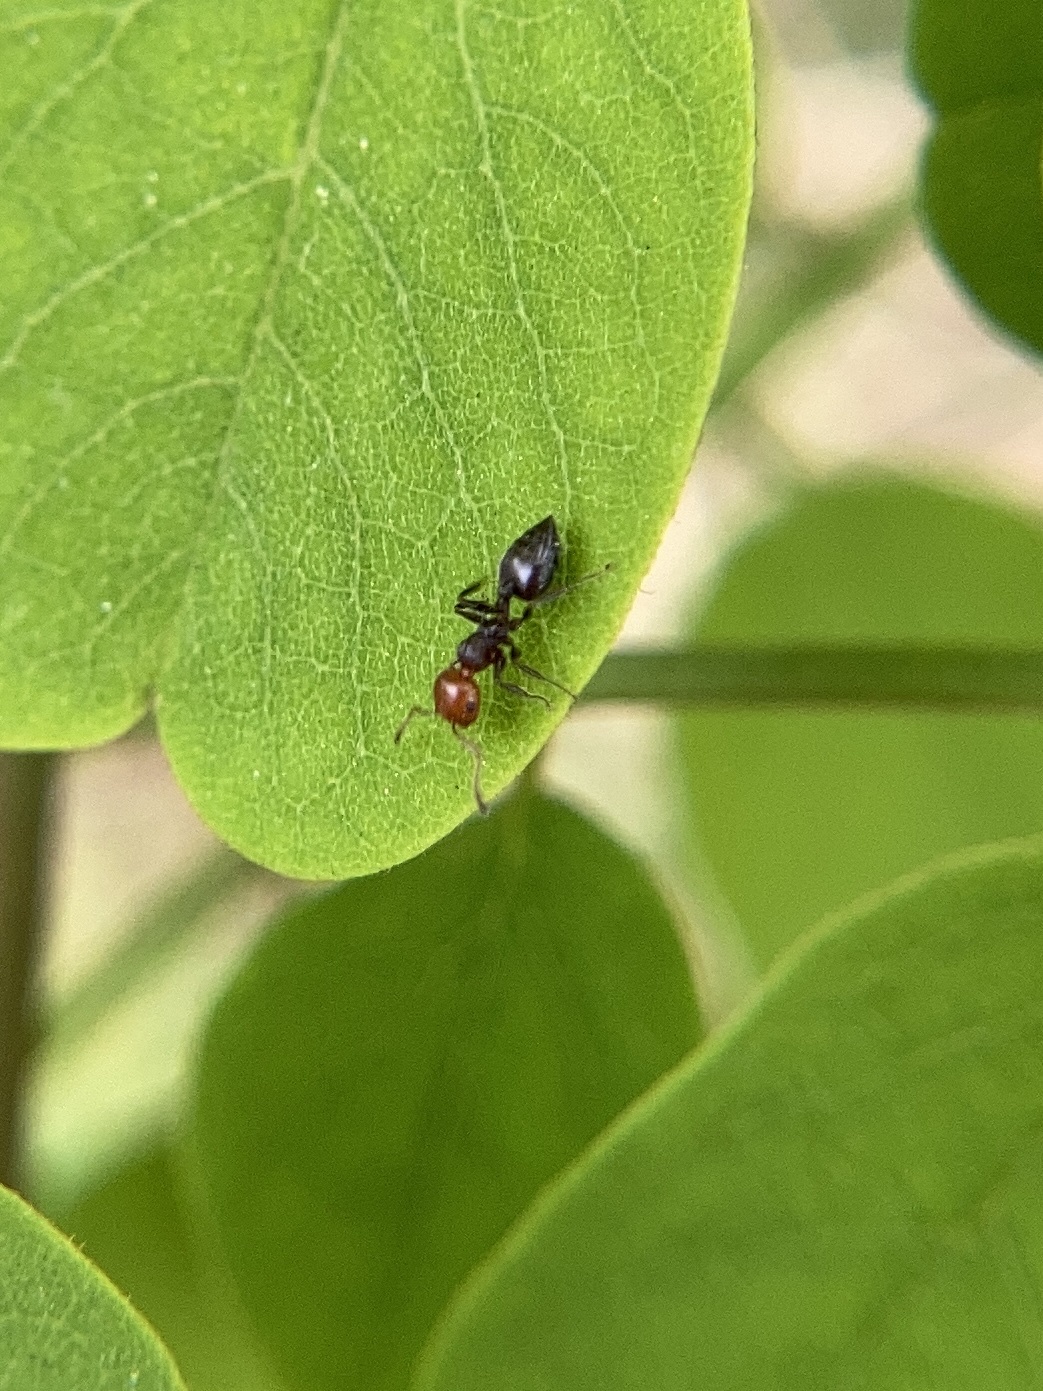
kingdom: Animalia
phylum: Arthropoda
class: Insecta
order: Hymenoptera
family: Formicidae
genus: Crematogaster
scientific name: Crematogaster scutellaris
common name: Fourmi du liège
